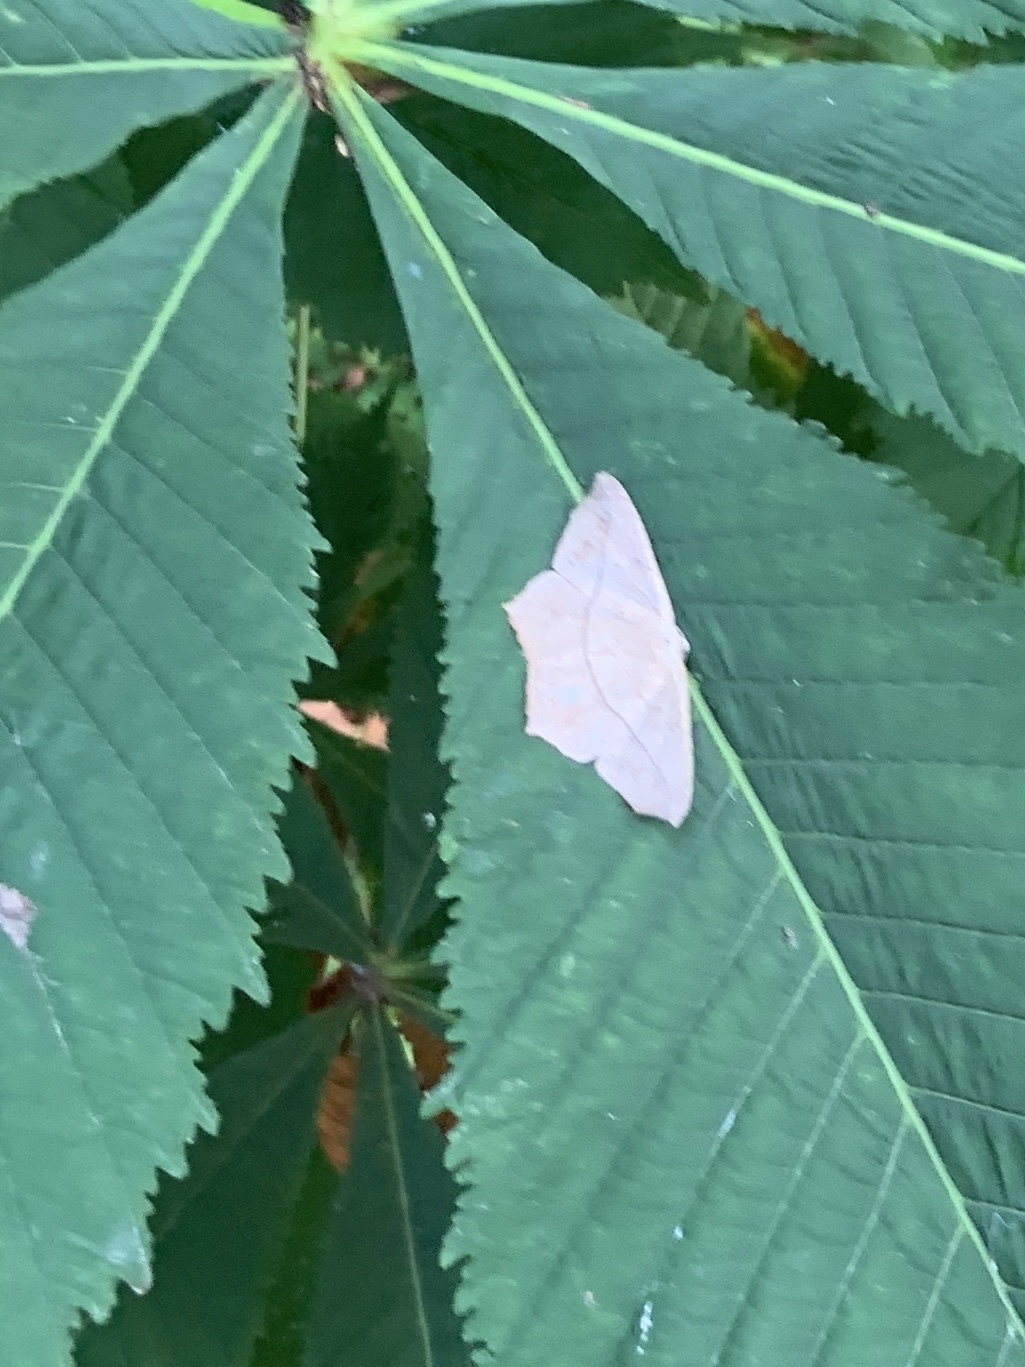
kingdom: Animalia
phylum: Arthropoda
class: Insecta
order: Lepidoptera
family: Geometridae
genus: Prochoerodes
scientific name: Prochoerodes lineola
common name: Large maple spanworm
